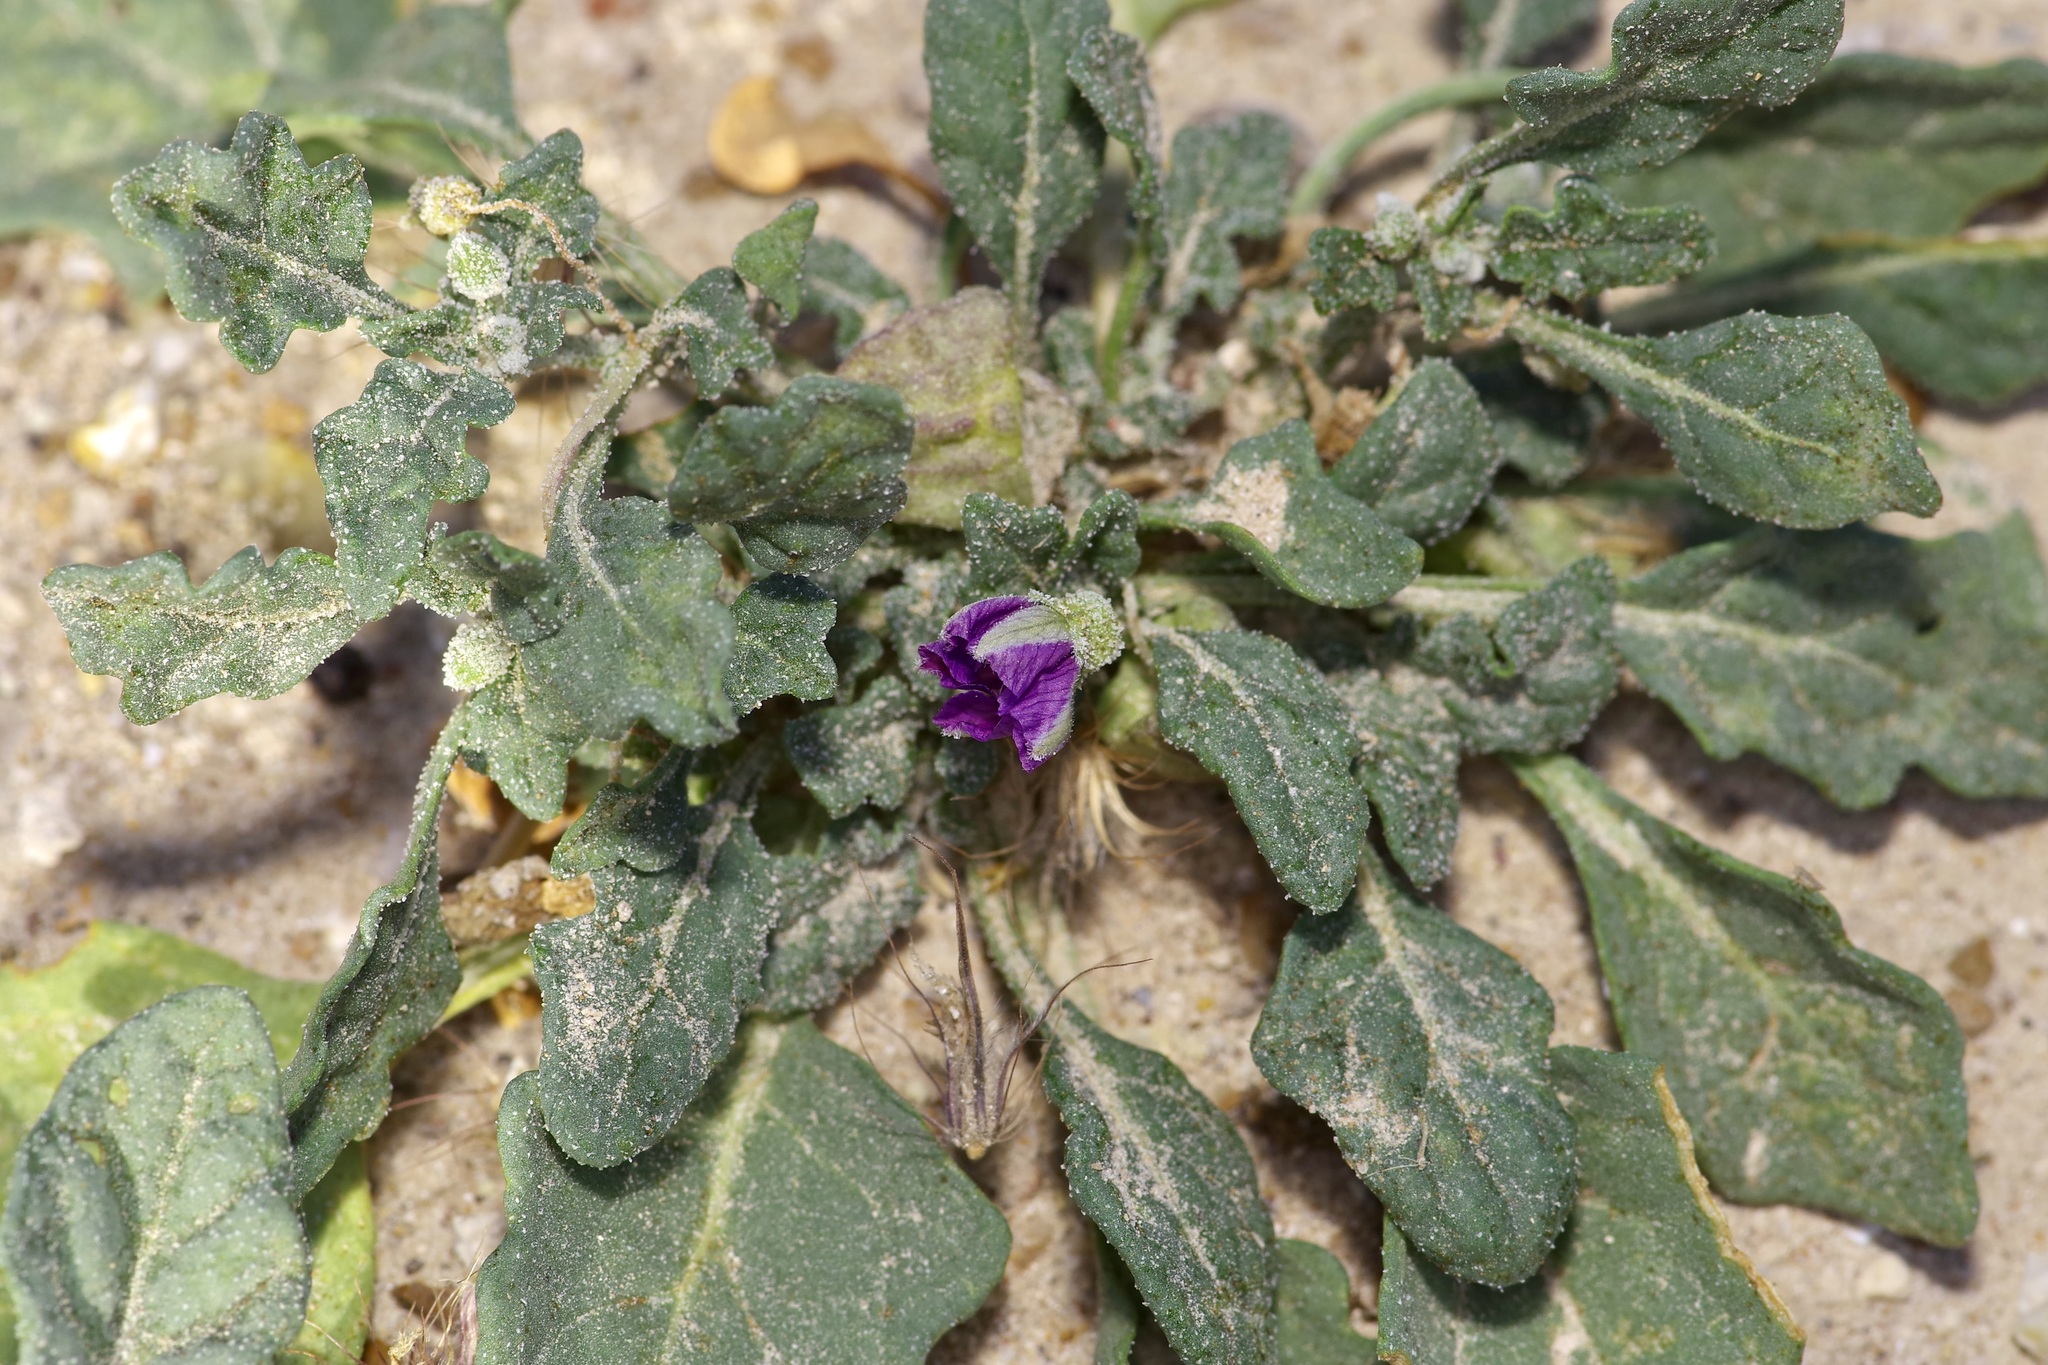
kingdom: Plantae
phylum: Tracheophyta
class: Magnoliopsida
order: Solanales
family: Solanaceae
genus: Quincula
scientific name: Quincula lobata
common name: Purple-ground-cherry
